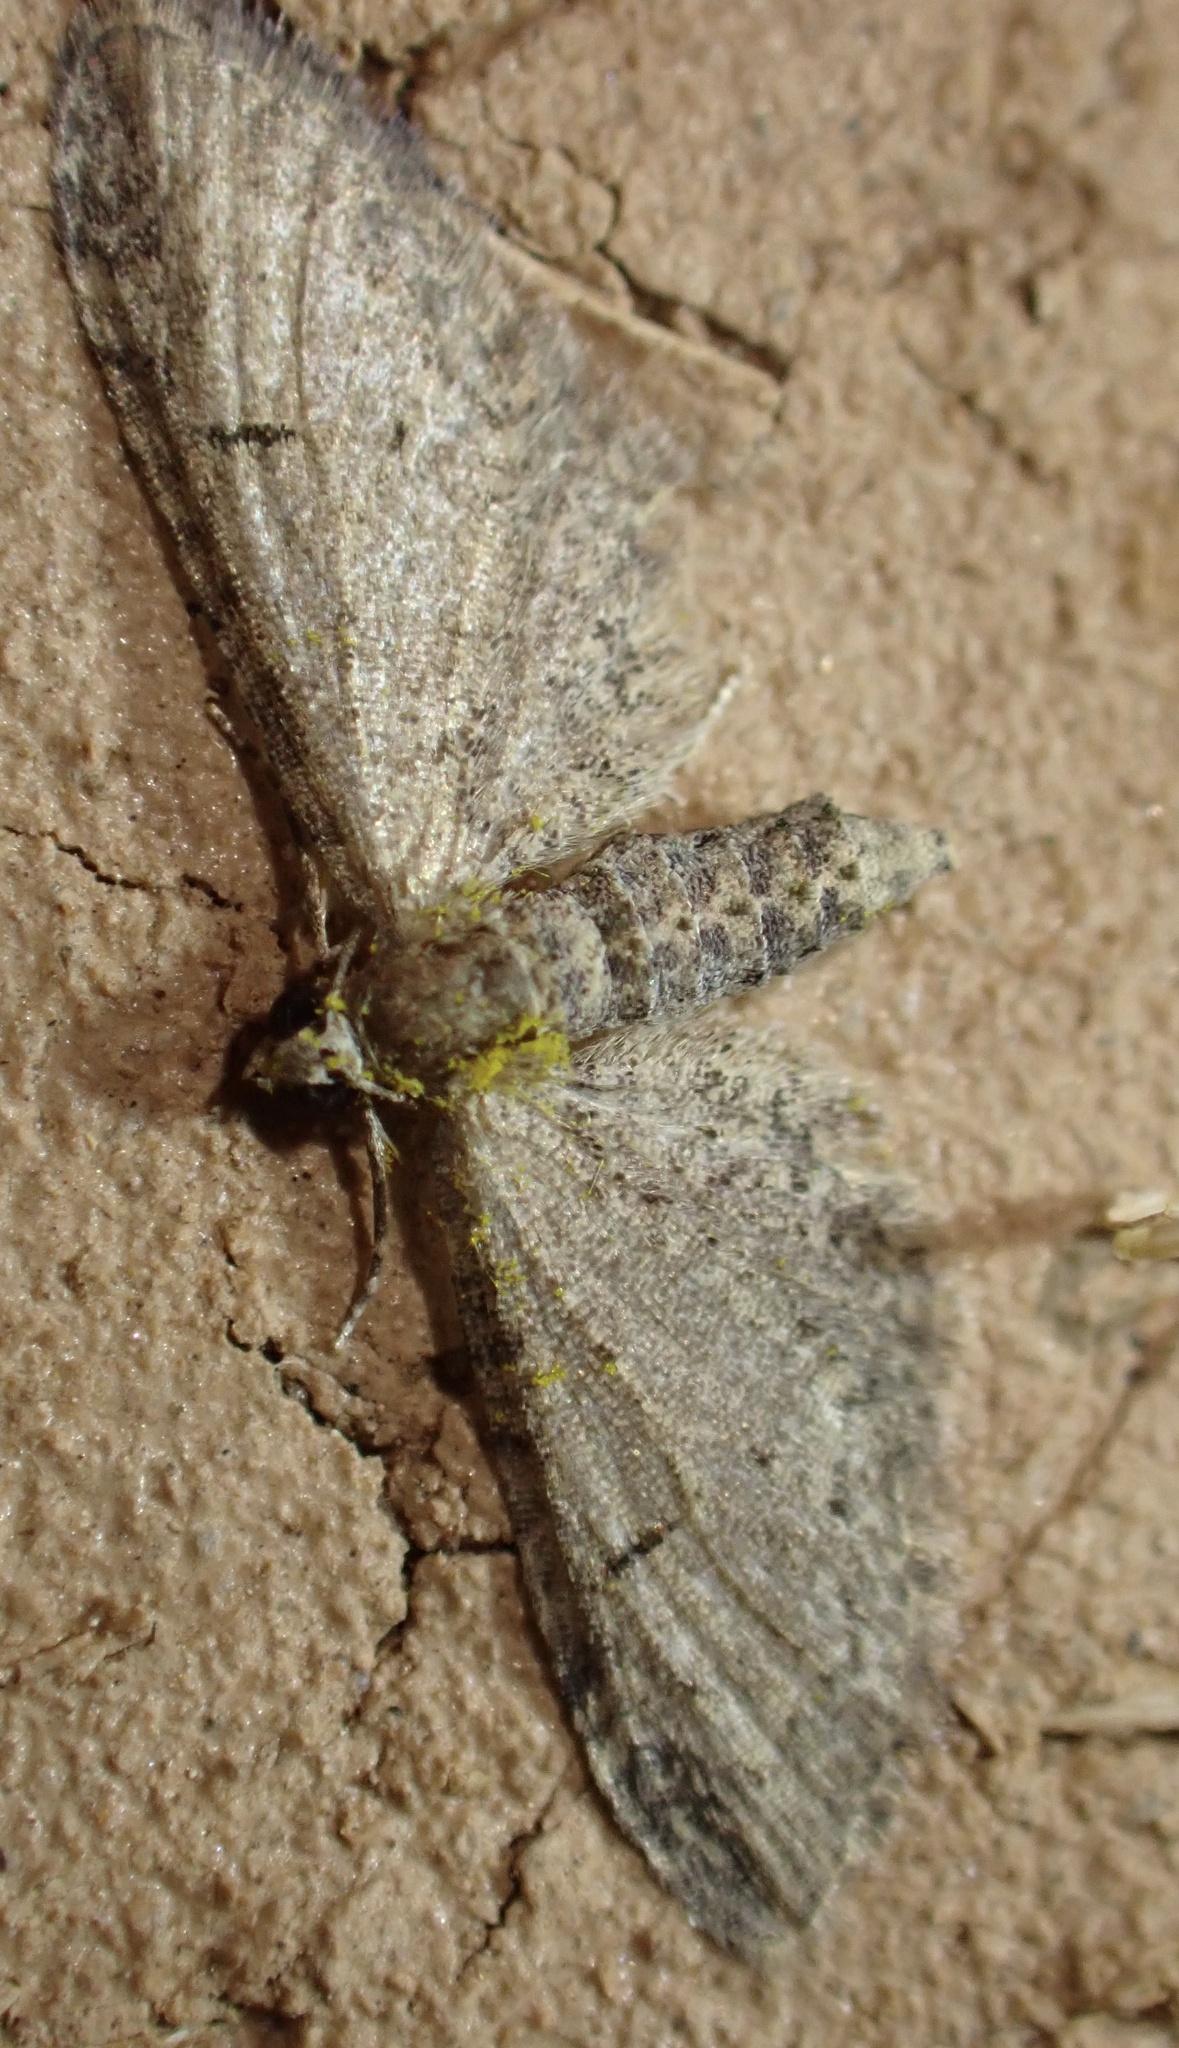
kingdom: Animalia
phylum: Arthropoda
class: Insecta
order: Lepidoptera
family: Geometridae
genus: Eupithecia
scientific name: Eupithecia ultimaria
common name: Channel islands pug
